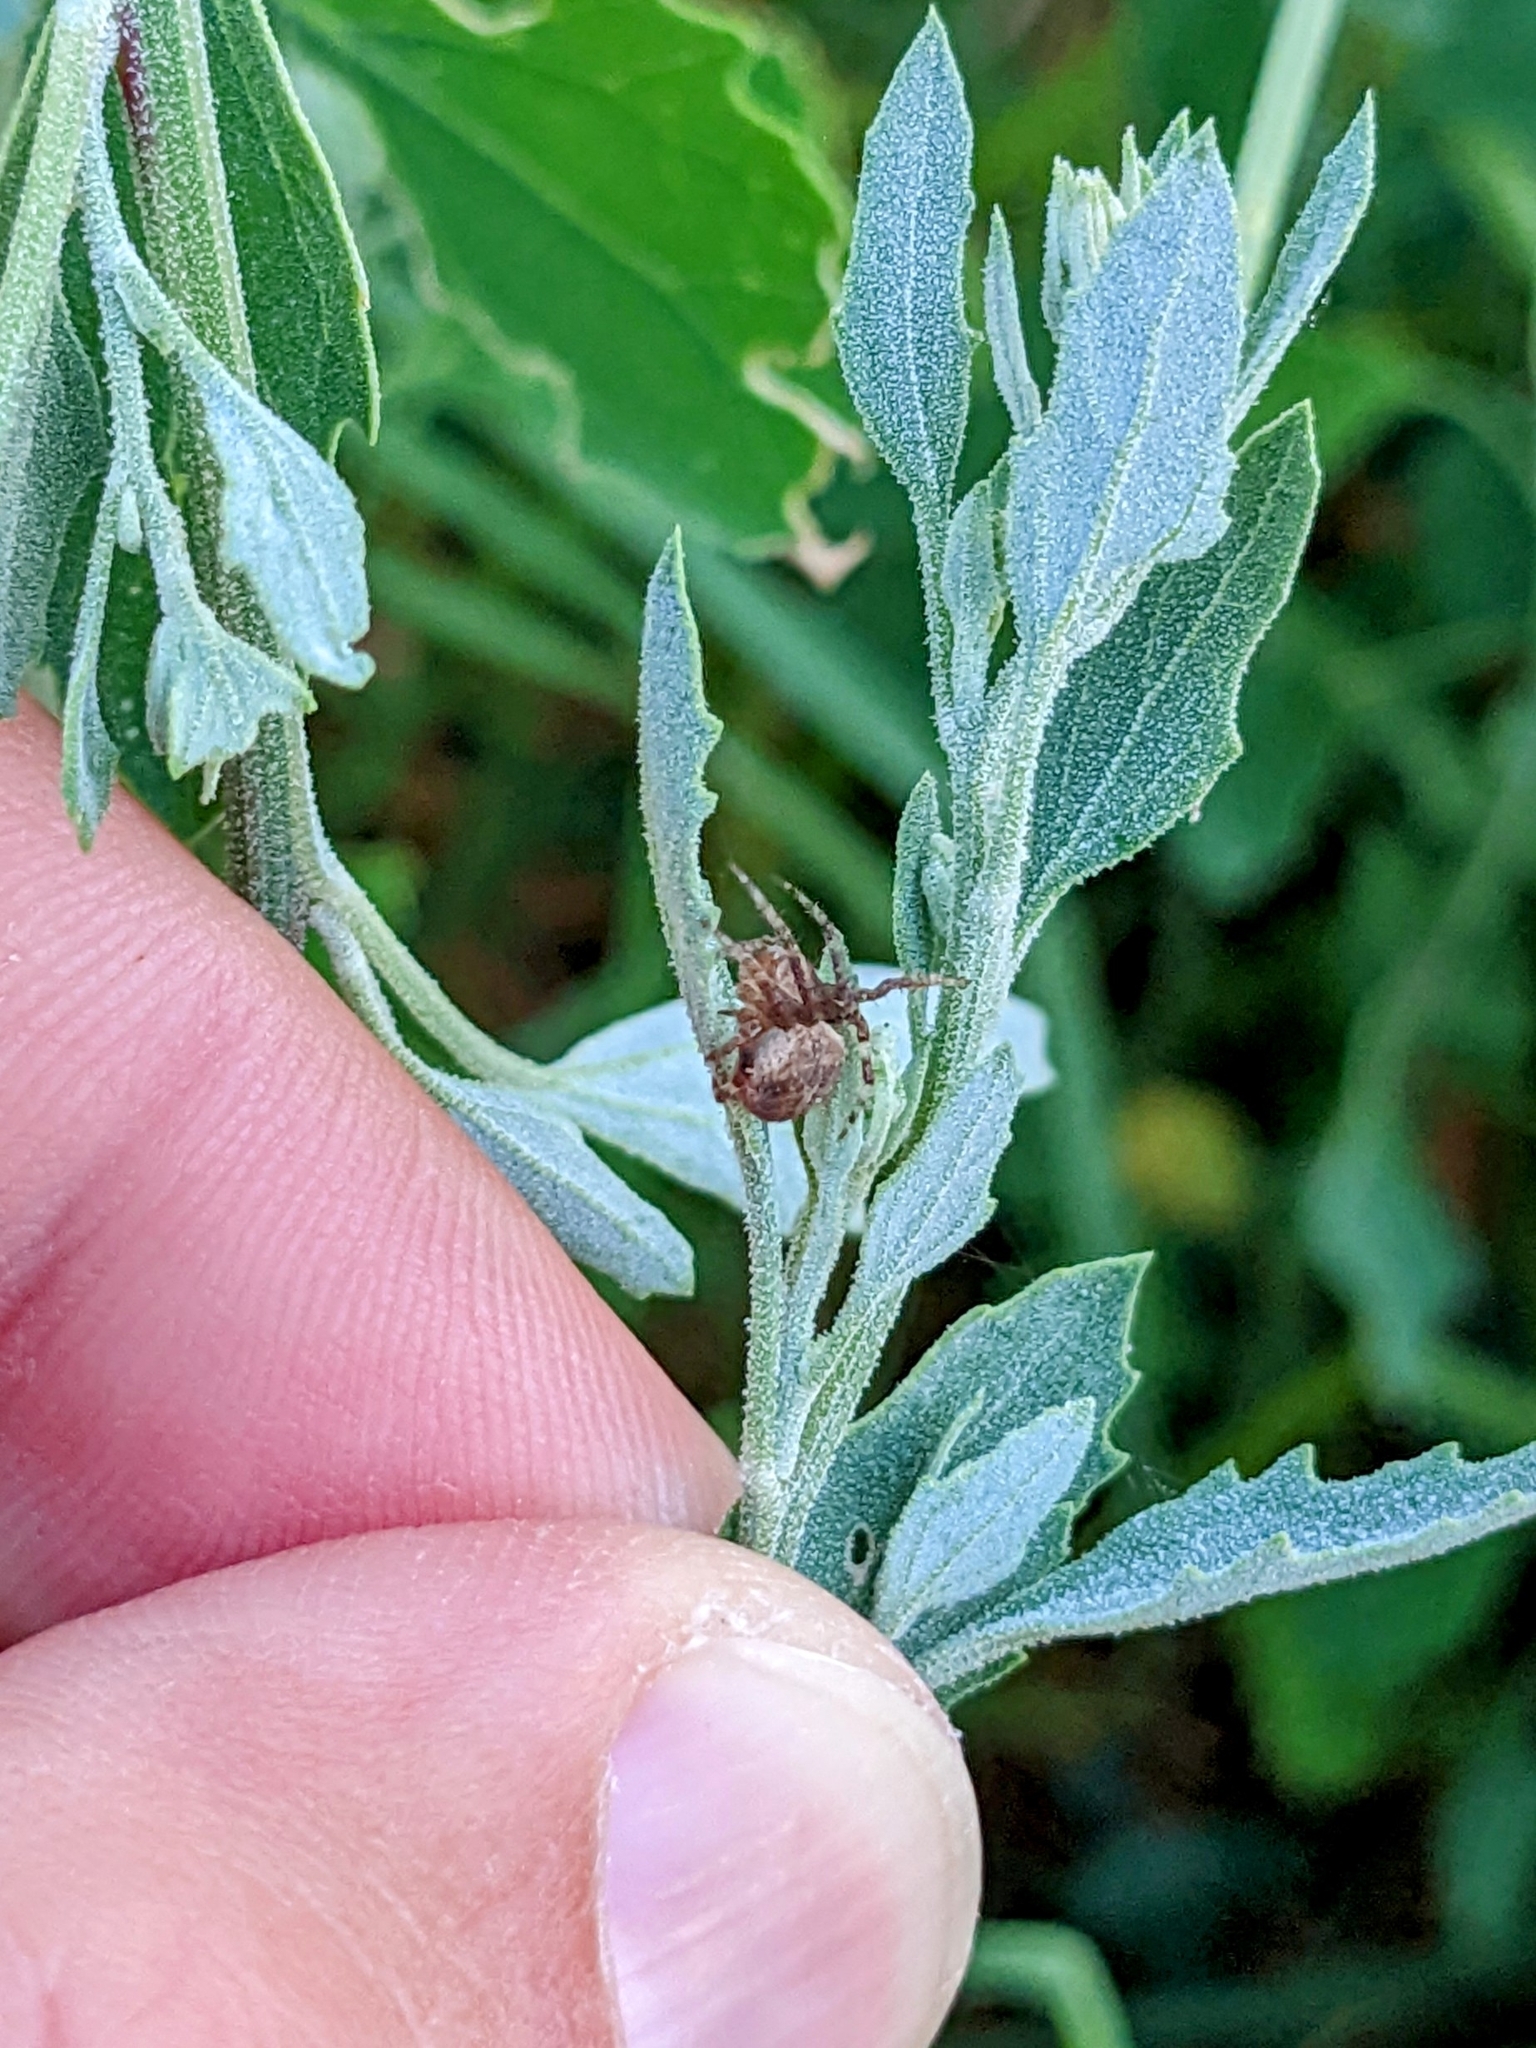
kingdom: Animalia
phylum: Arthropoda
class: Arachnida
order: Araneae
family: Araneidae
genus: Neoscona
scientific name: Neoscona subfusca
